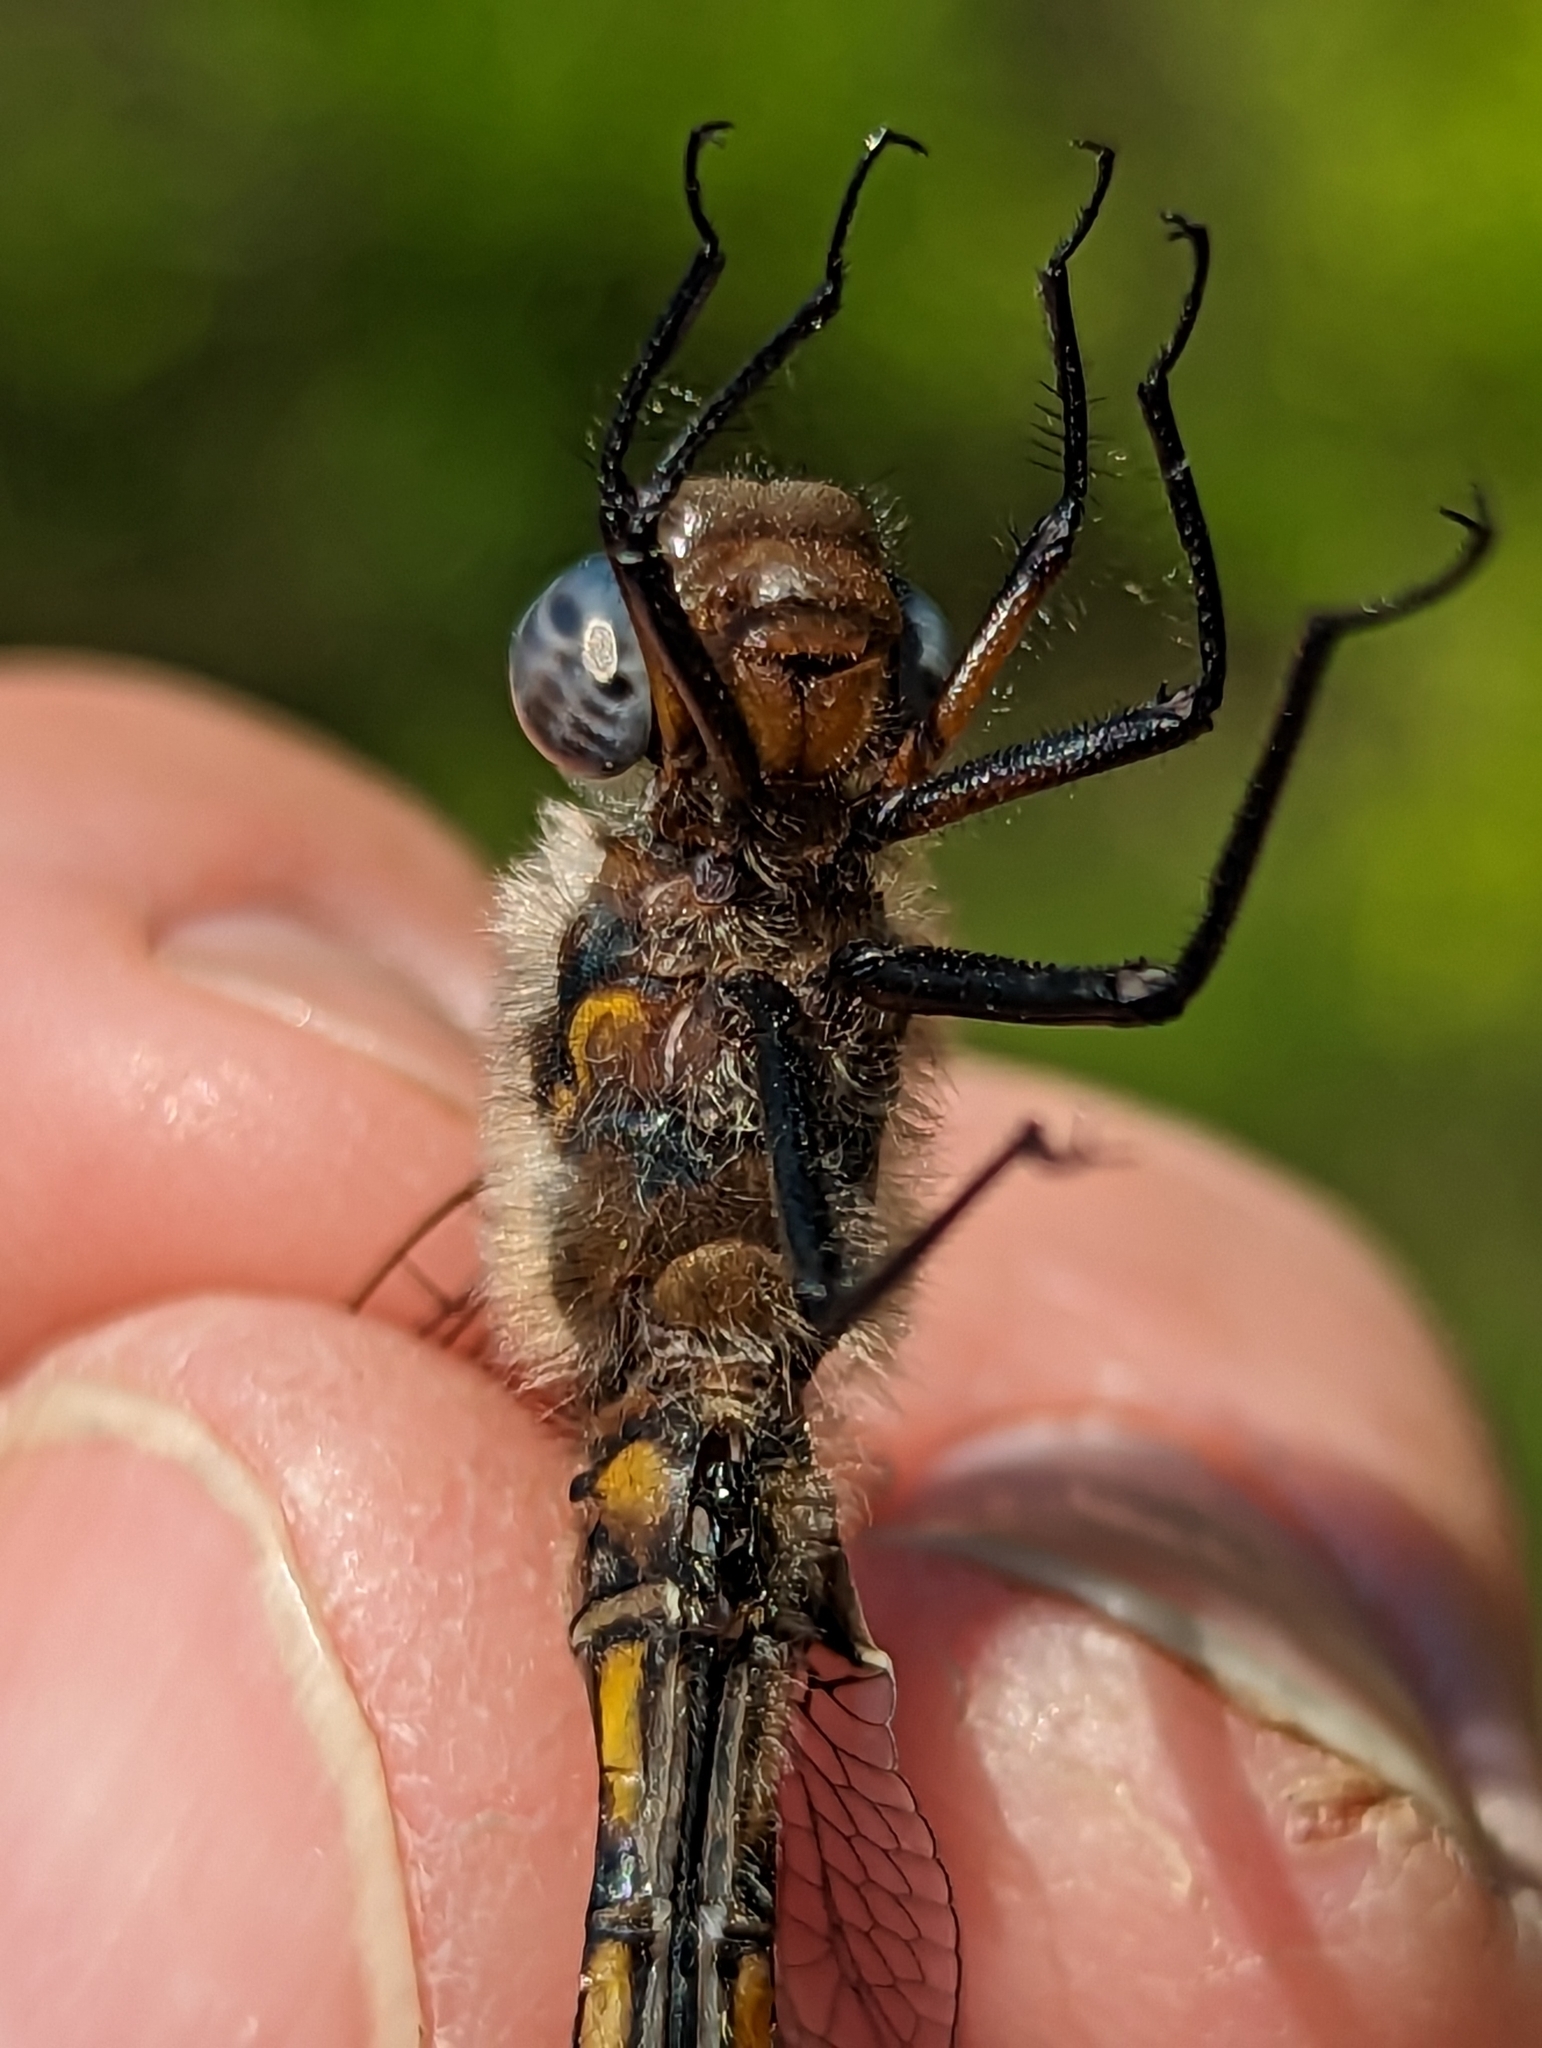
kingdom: Animalia
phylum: Arthropoda
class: Insecta
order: Odonata
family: Corduliidae
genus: Epitheca
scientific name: Epitheca canis
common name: Beaverpond baskettail
